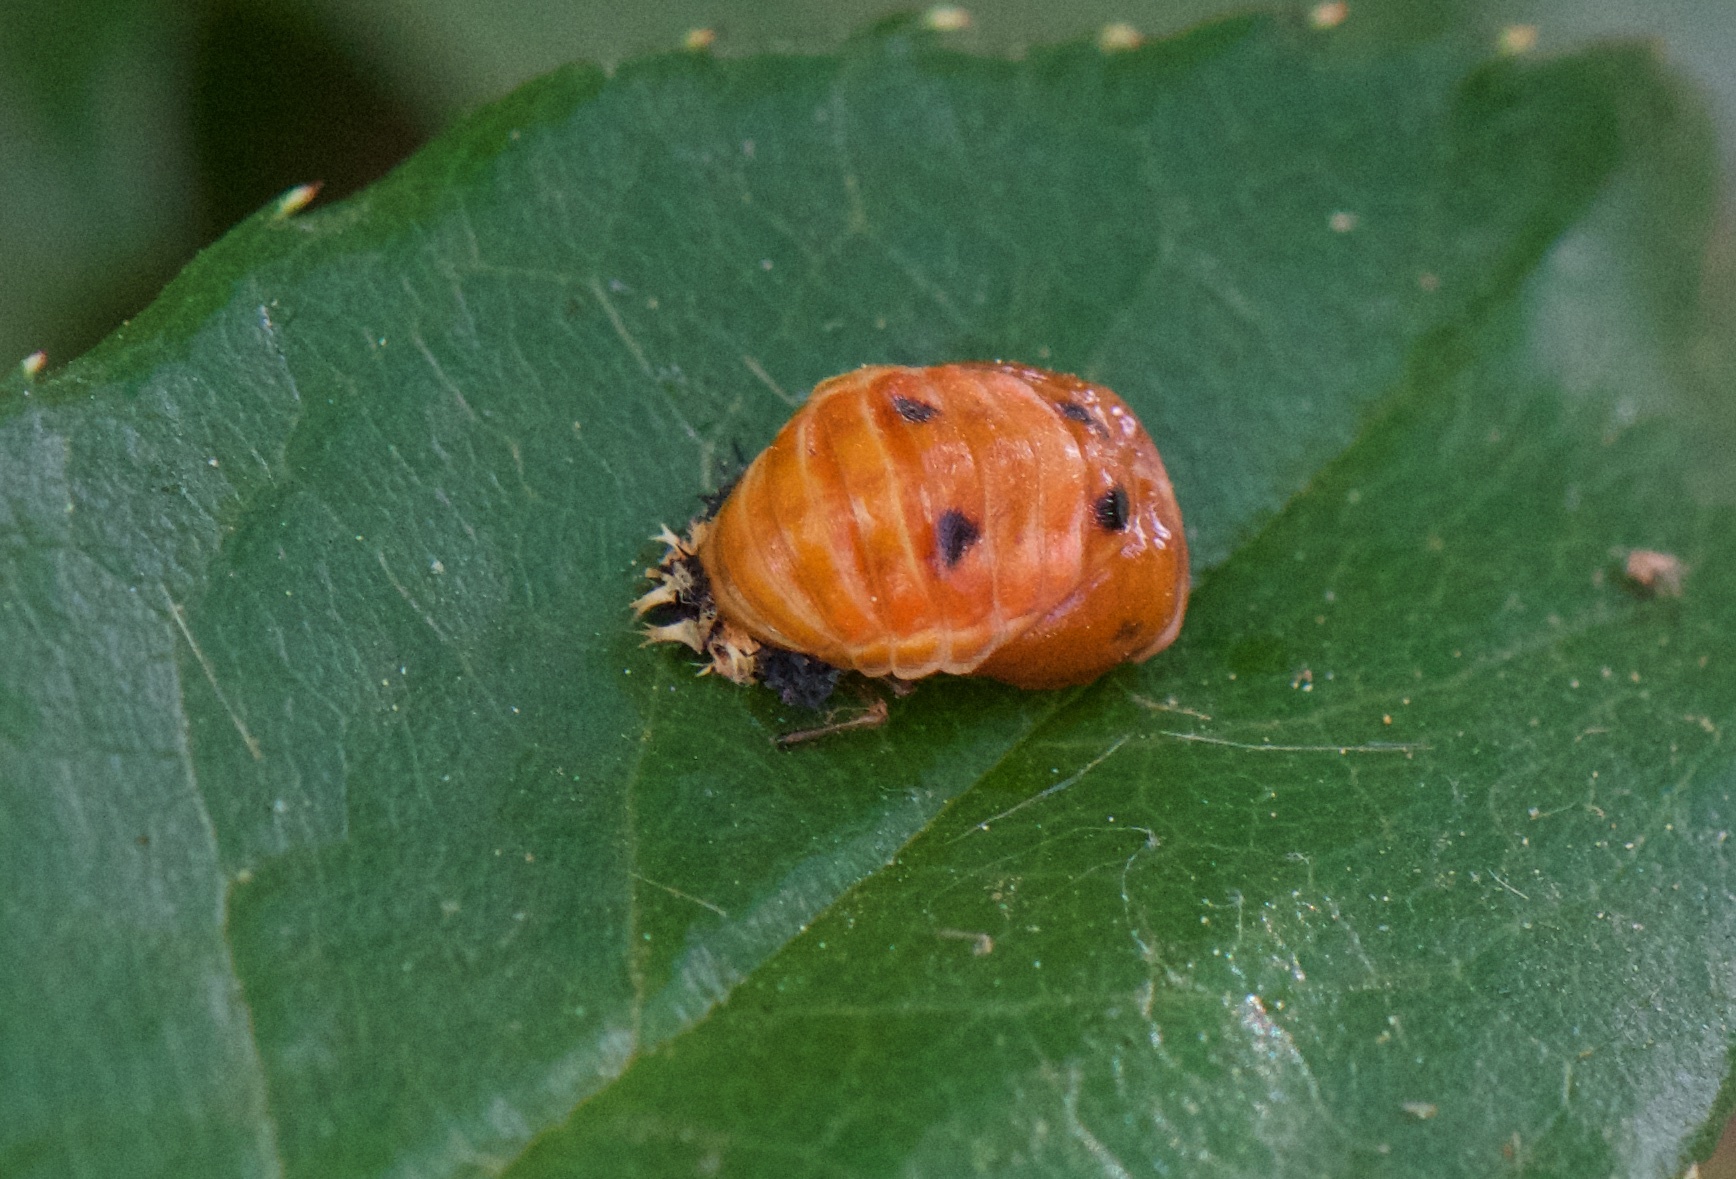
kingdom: Animalia
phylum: Arthropoda
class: Insecta
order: Coleoptera
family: Coccinellidae
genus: Harmonia
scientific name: Harmonia axyridis
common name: Harlequin ladybird
